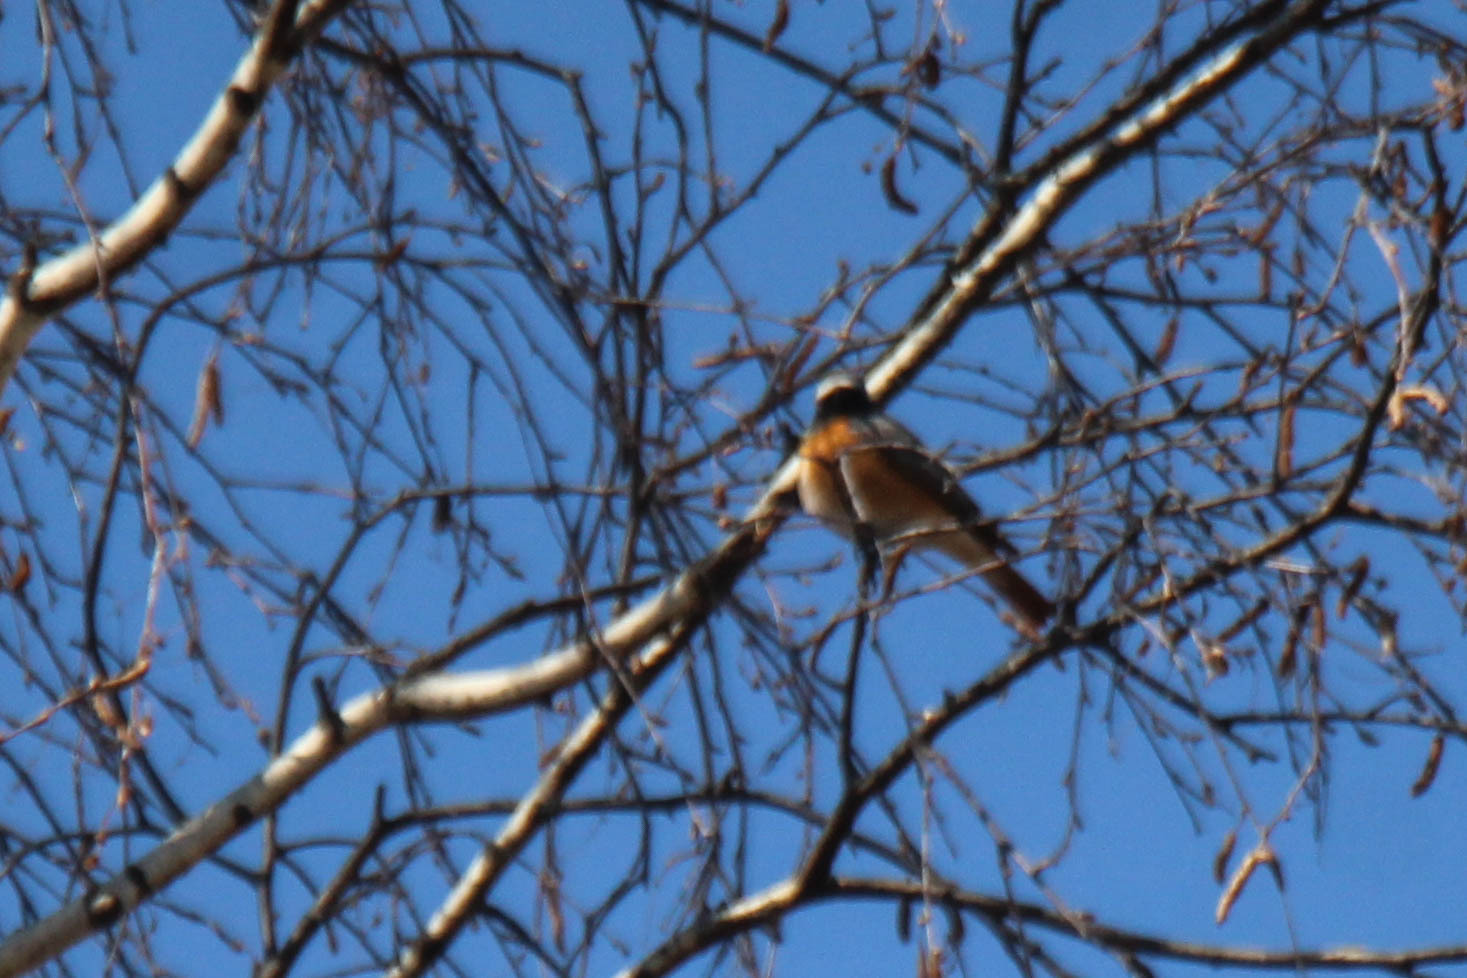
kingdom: Animalia
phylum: Chordata
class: Aves
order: Passeriformes
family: Muscicapidae
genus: Phoenicurus
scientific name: Phoenicurus phoenicurus
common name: Common redstart
